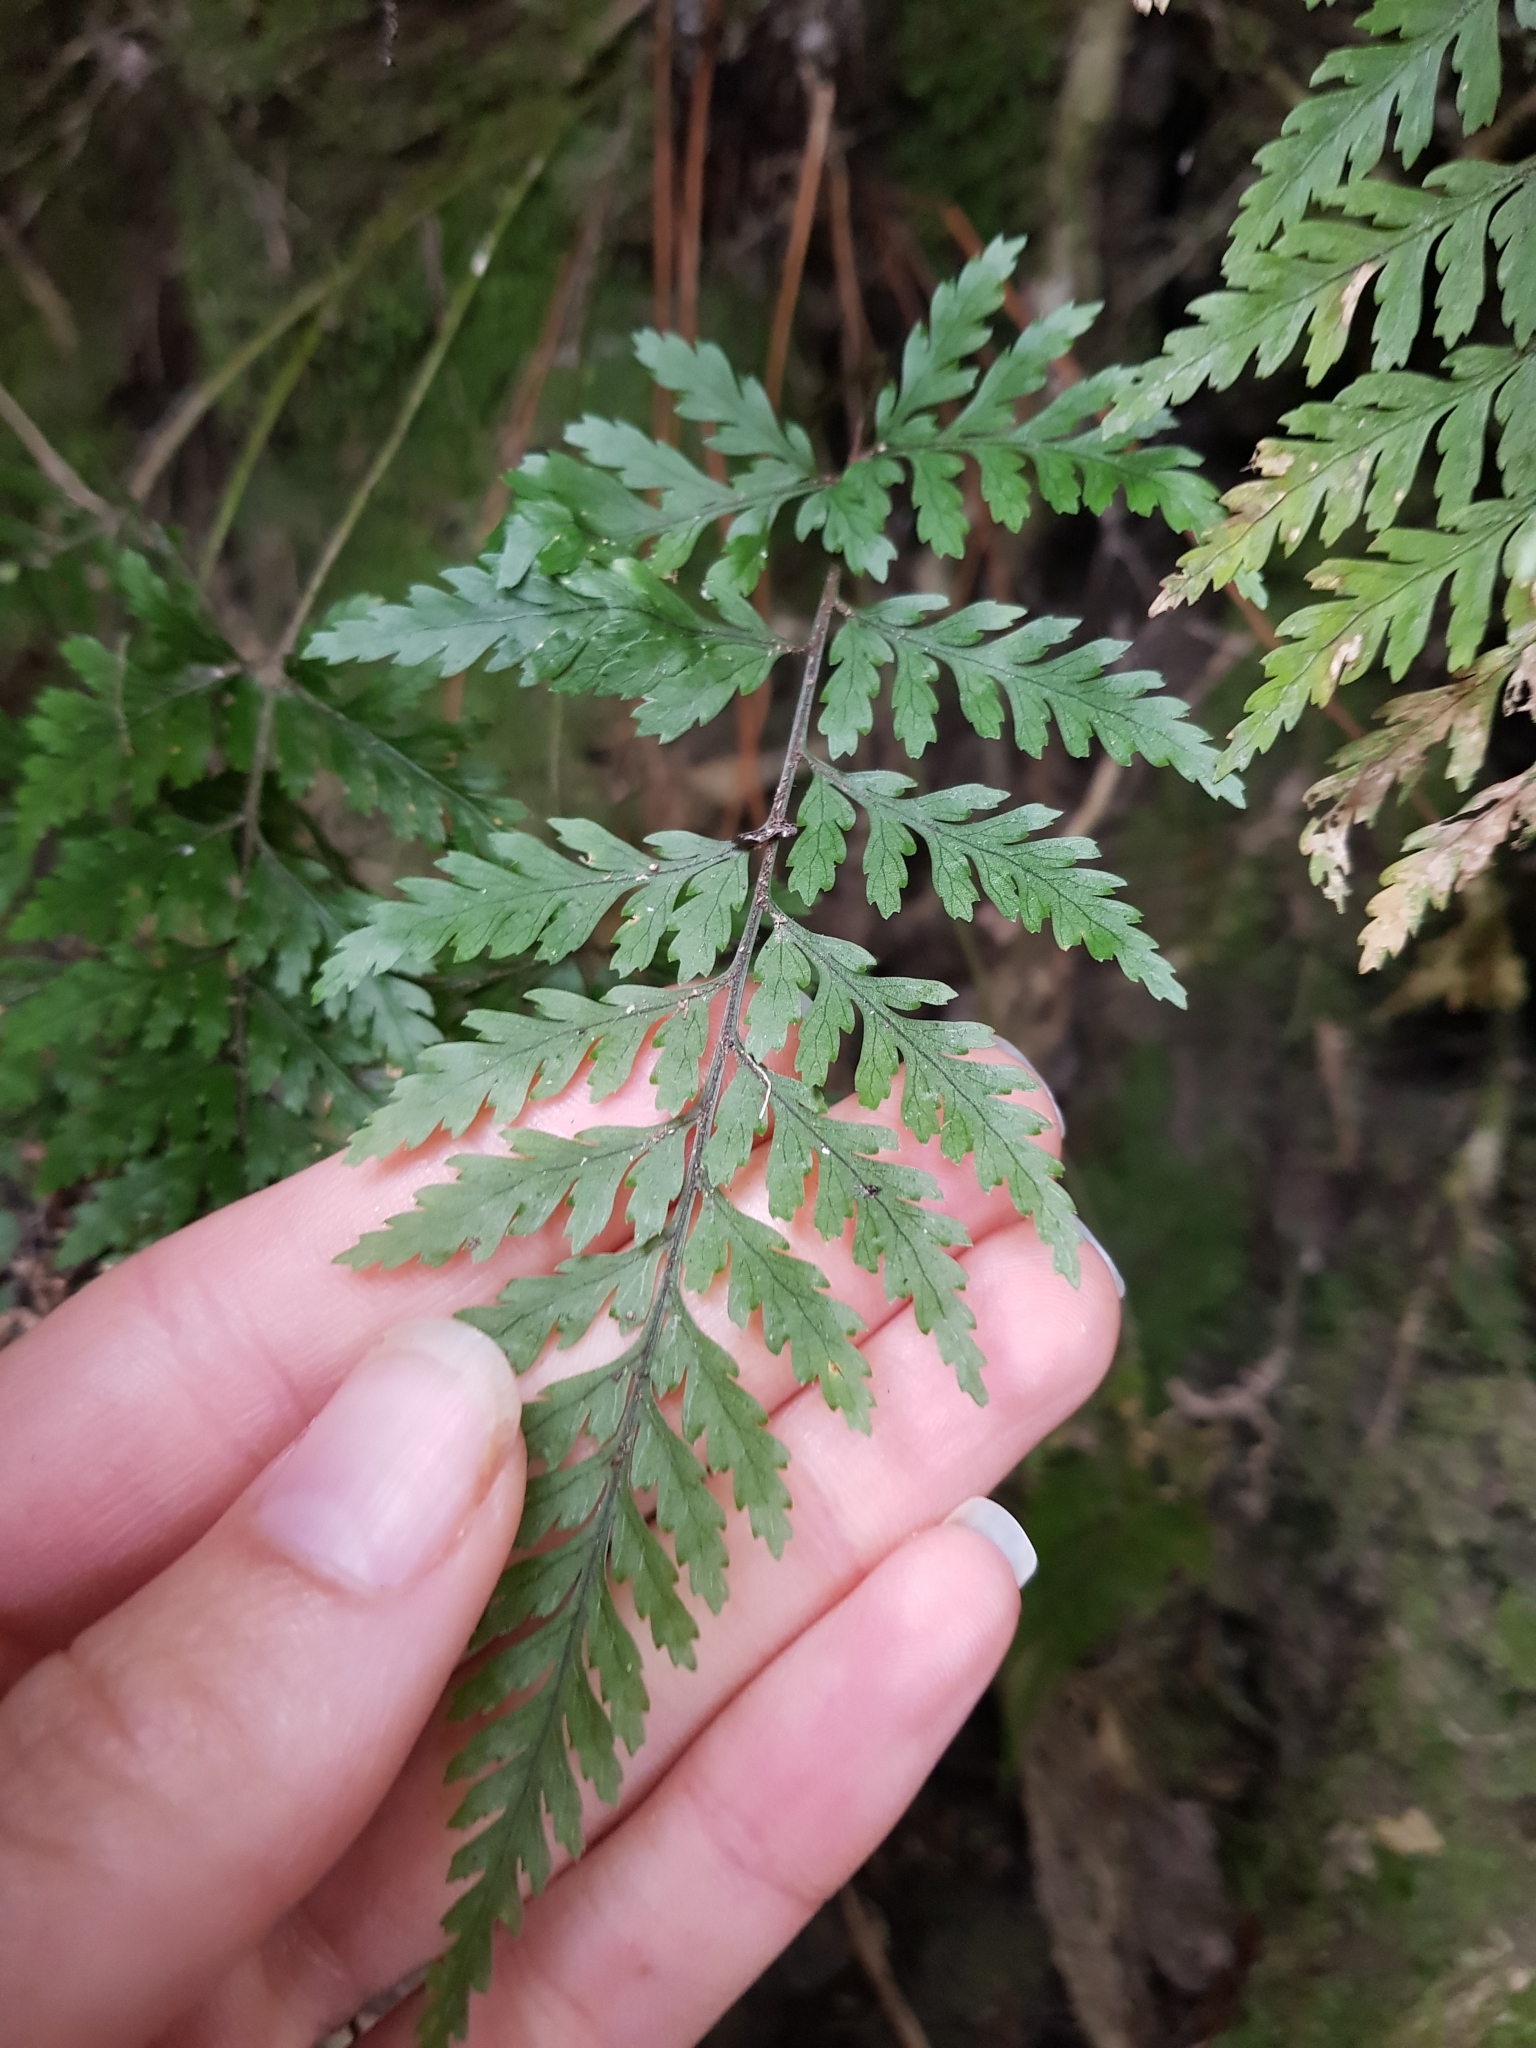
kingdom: Plantae
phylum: Tracheophyta
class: Polypodiopsida
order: Polypodiales
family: Dryopteridaceae
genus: Parapolystichum
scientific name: Parapolystichum glabellum
